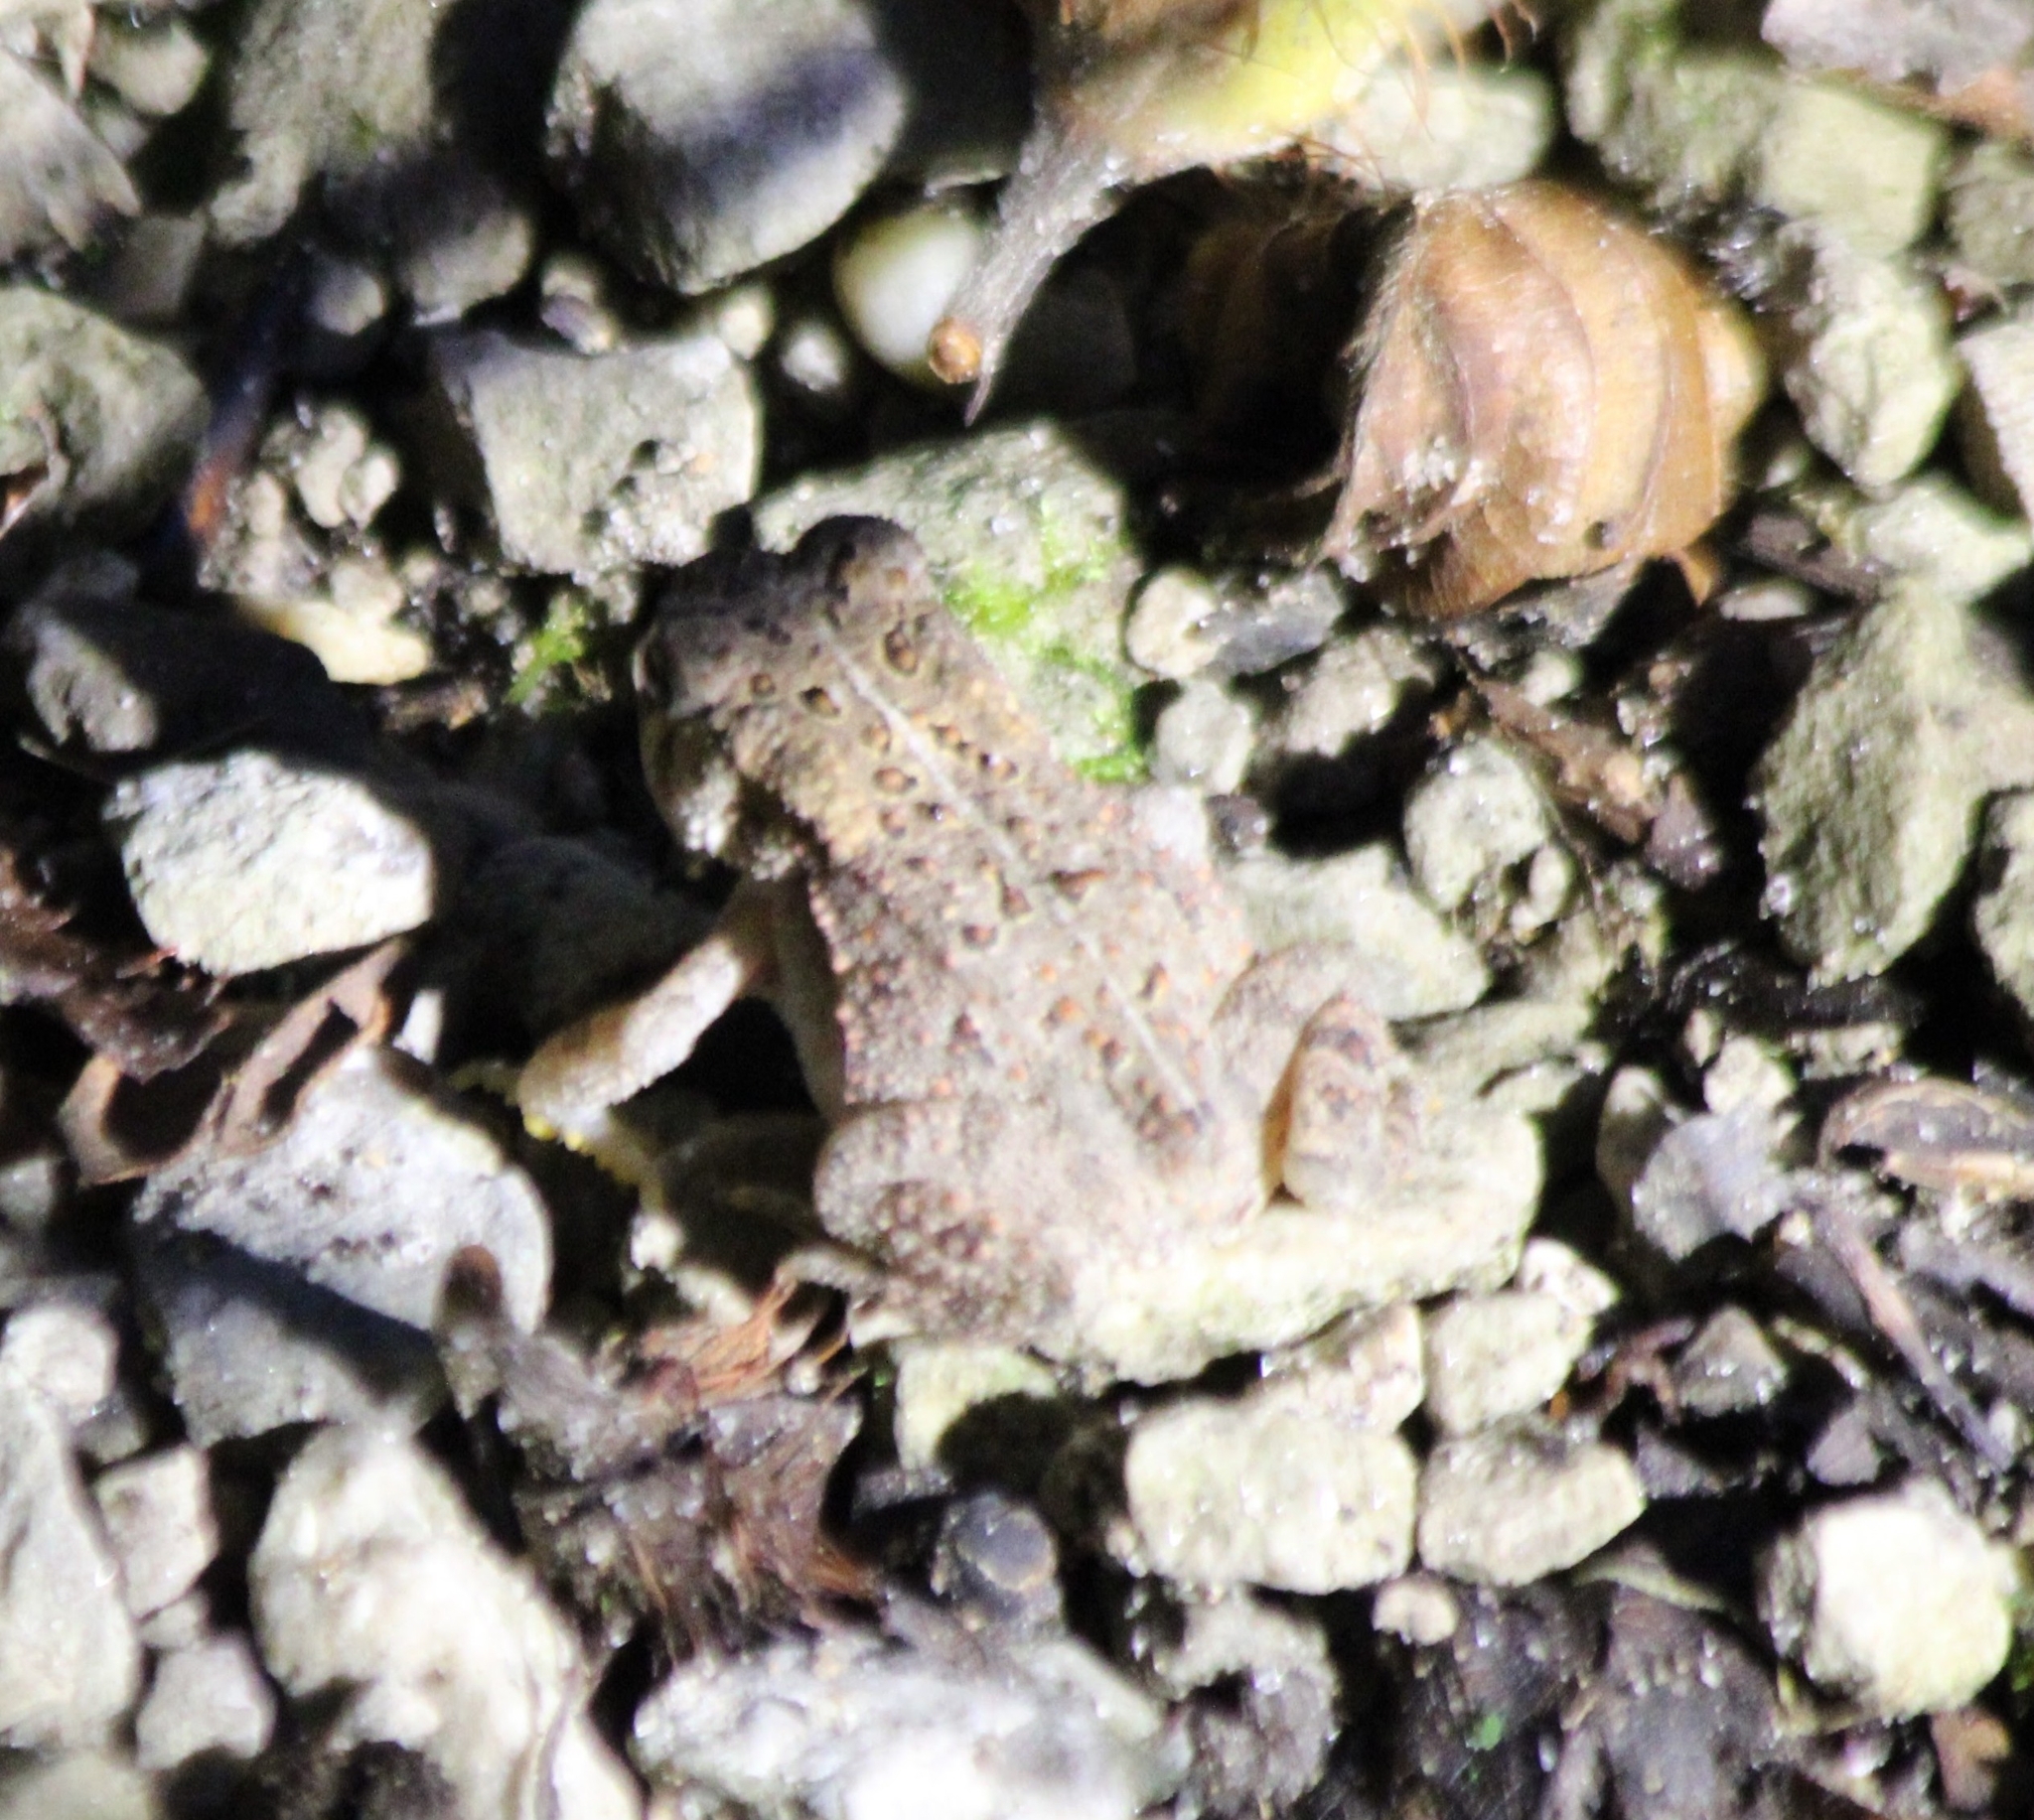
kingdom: Animalia
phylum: Chordata
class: Amphibia
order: Anura
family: Bufonidae
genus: Anaxyrus
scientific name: Anaxyrus americanus
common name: American toad
